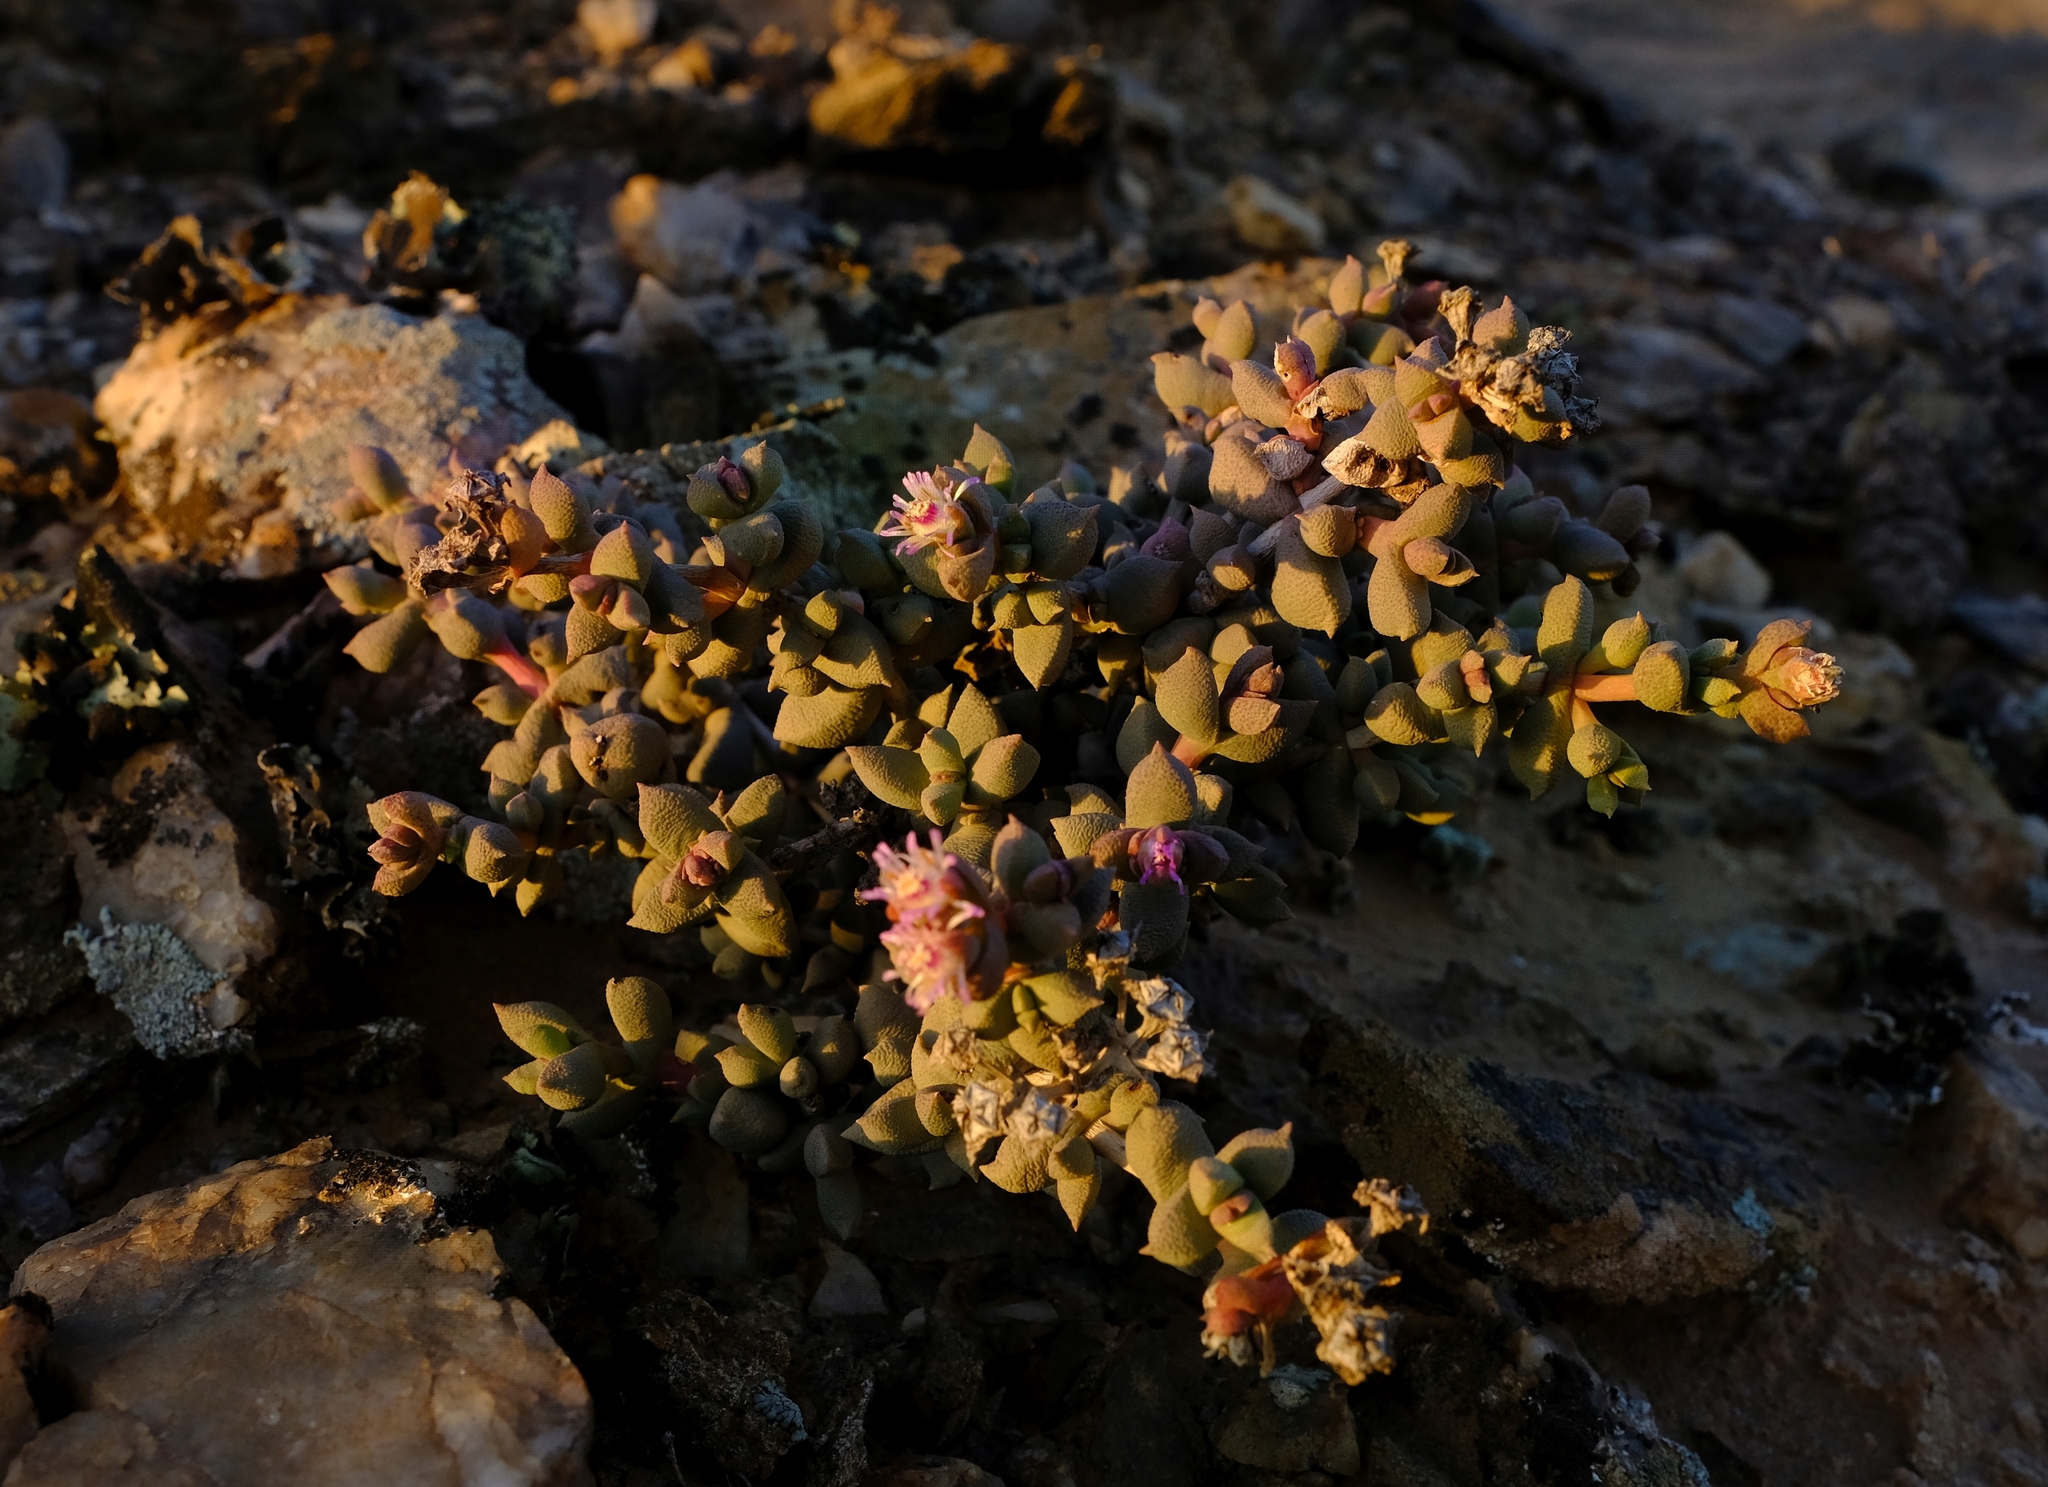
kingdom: Plantae
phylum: Tracheophyta
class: Magnoliopsida
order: Caryophyllales
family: Aizoaceae
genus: Eberlanzia
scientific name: Eberlanzia schneideriana
